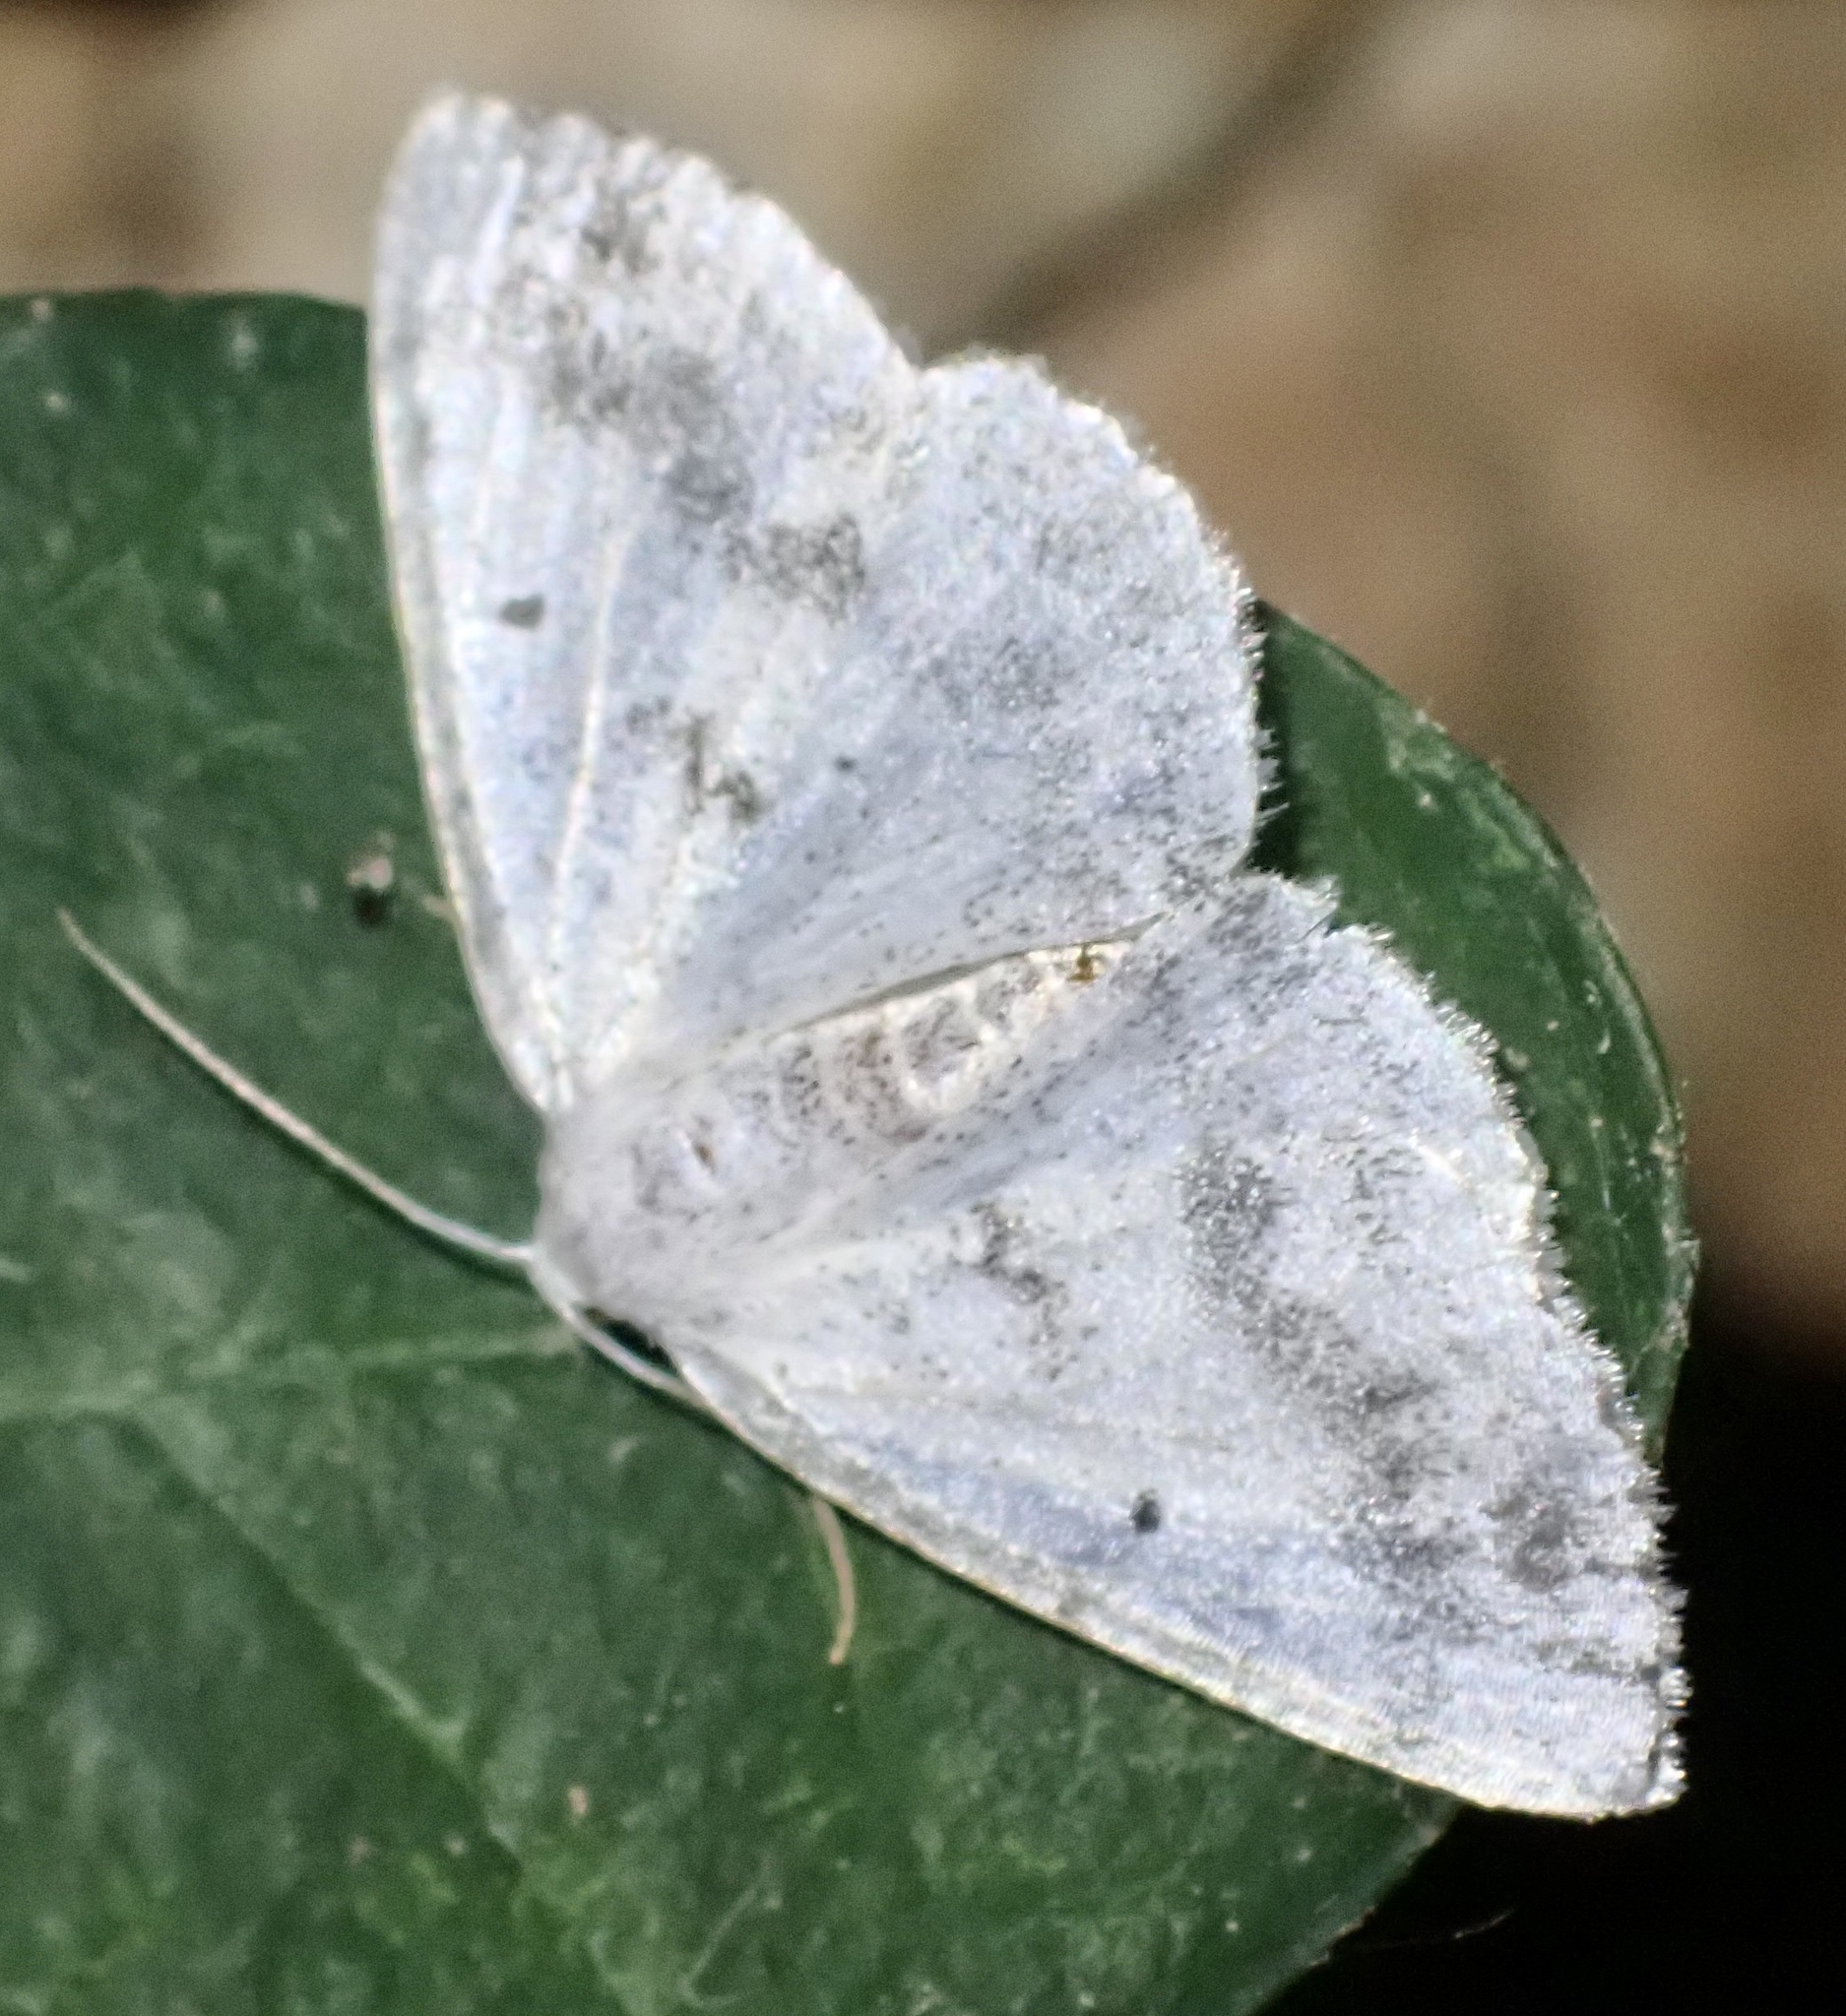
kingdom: Animalia
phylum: Arthropoda
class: Insecta
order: Lepidoptera
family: Geometridae
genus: Lomographa
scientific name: Lomographa temerata
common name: Clouded silver
